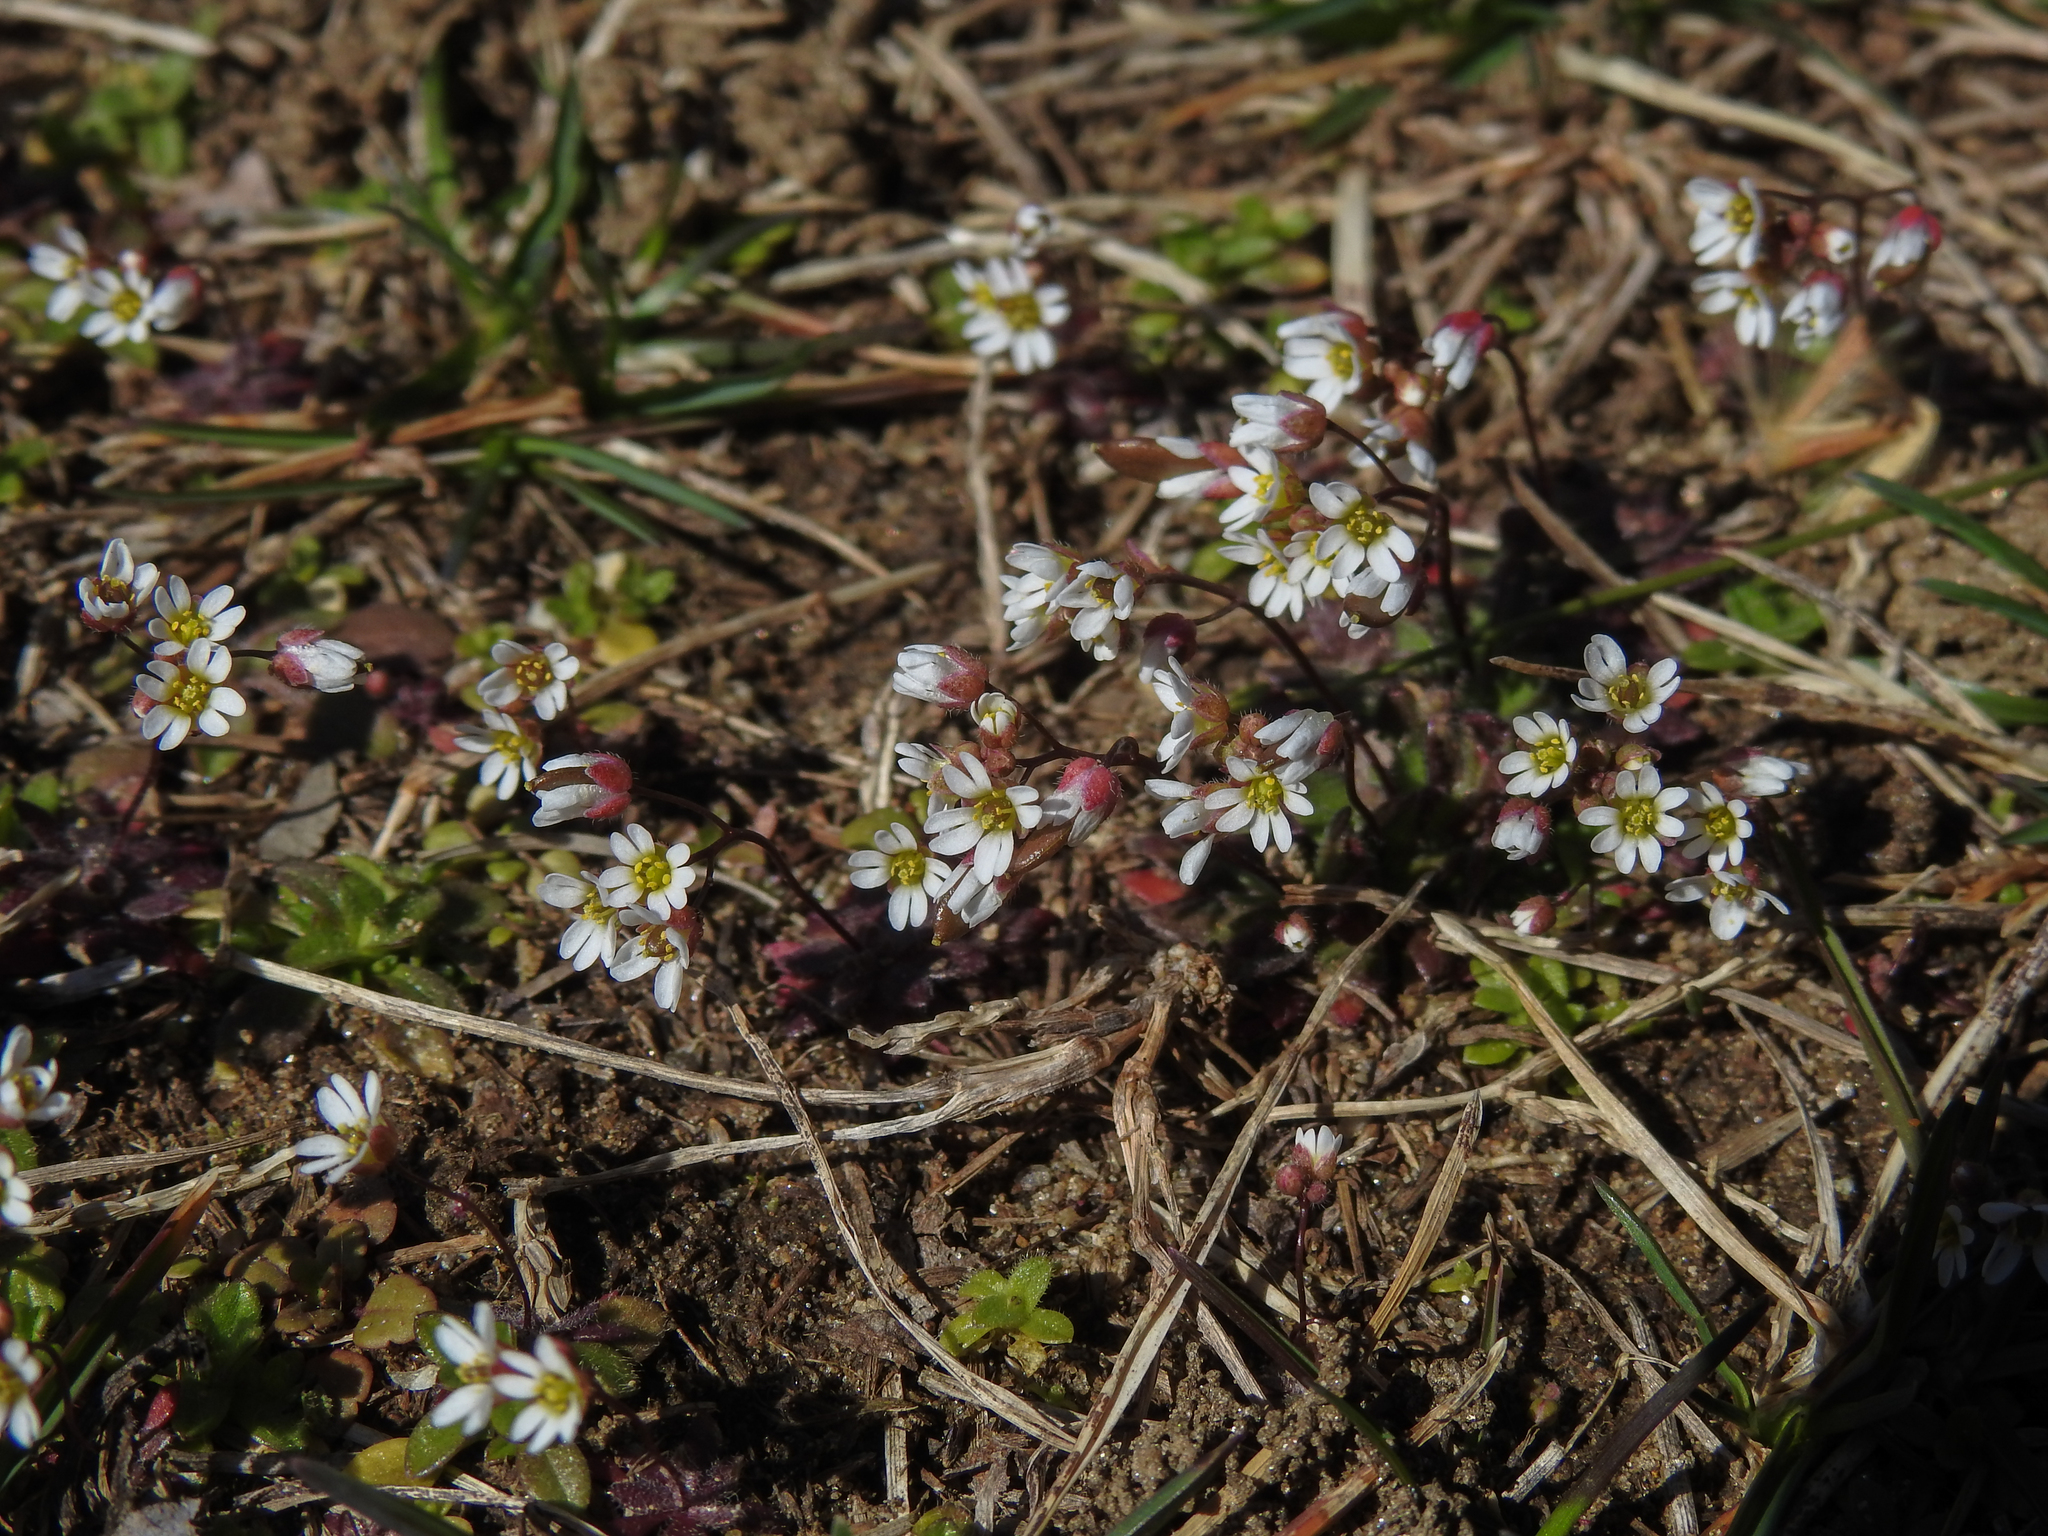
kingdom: Plantae
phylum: Tracheophyta
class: Magnoliopsida
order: Brassicales
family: Brassicaceae
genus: Draba
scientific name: Draba verna
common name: Spring draba
